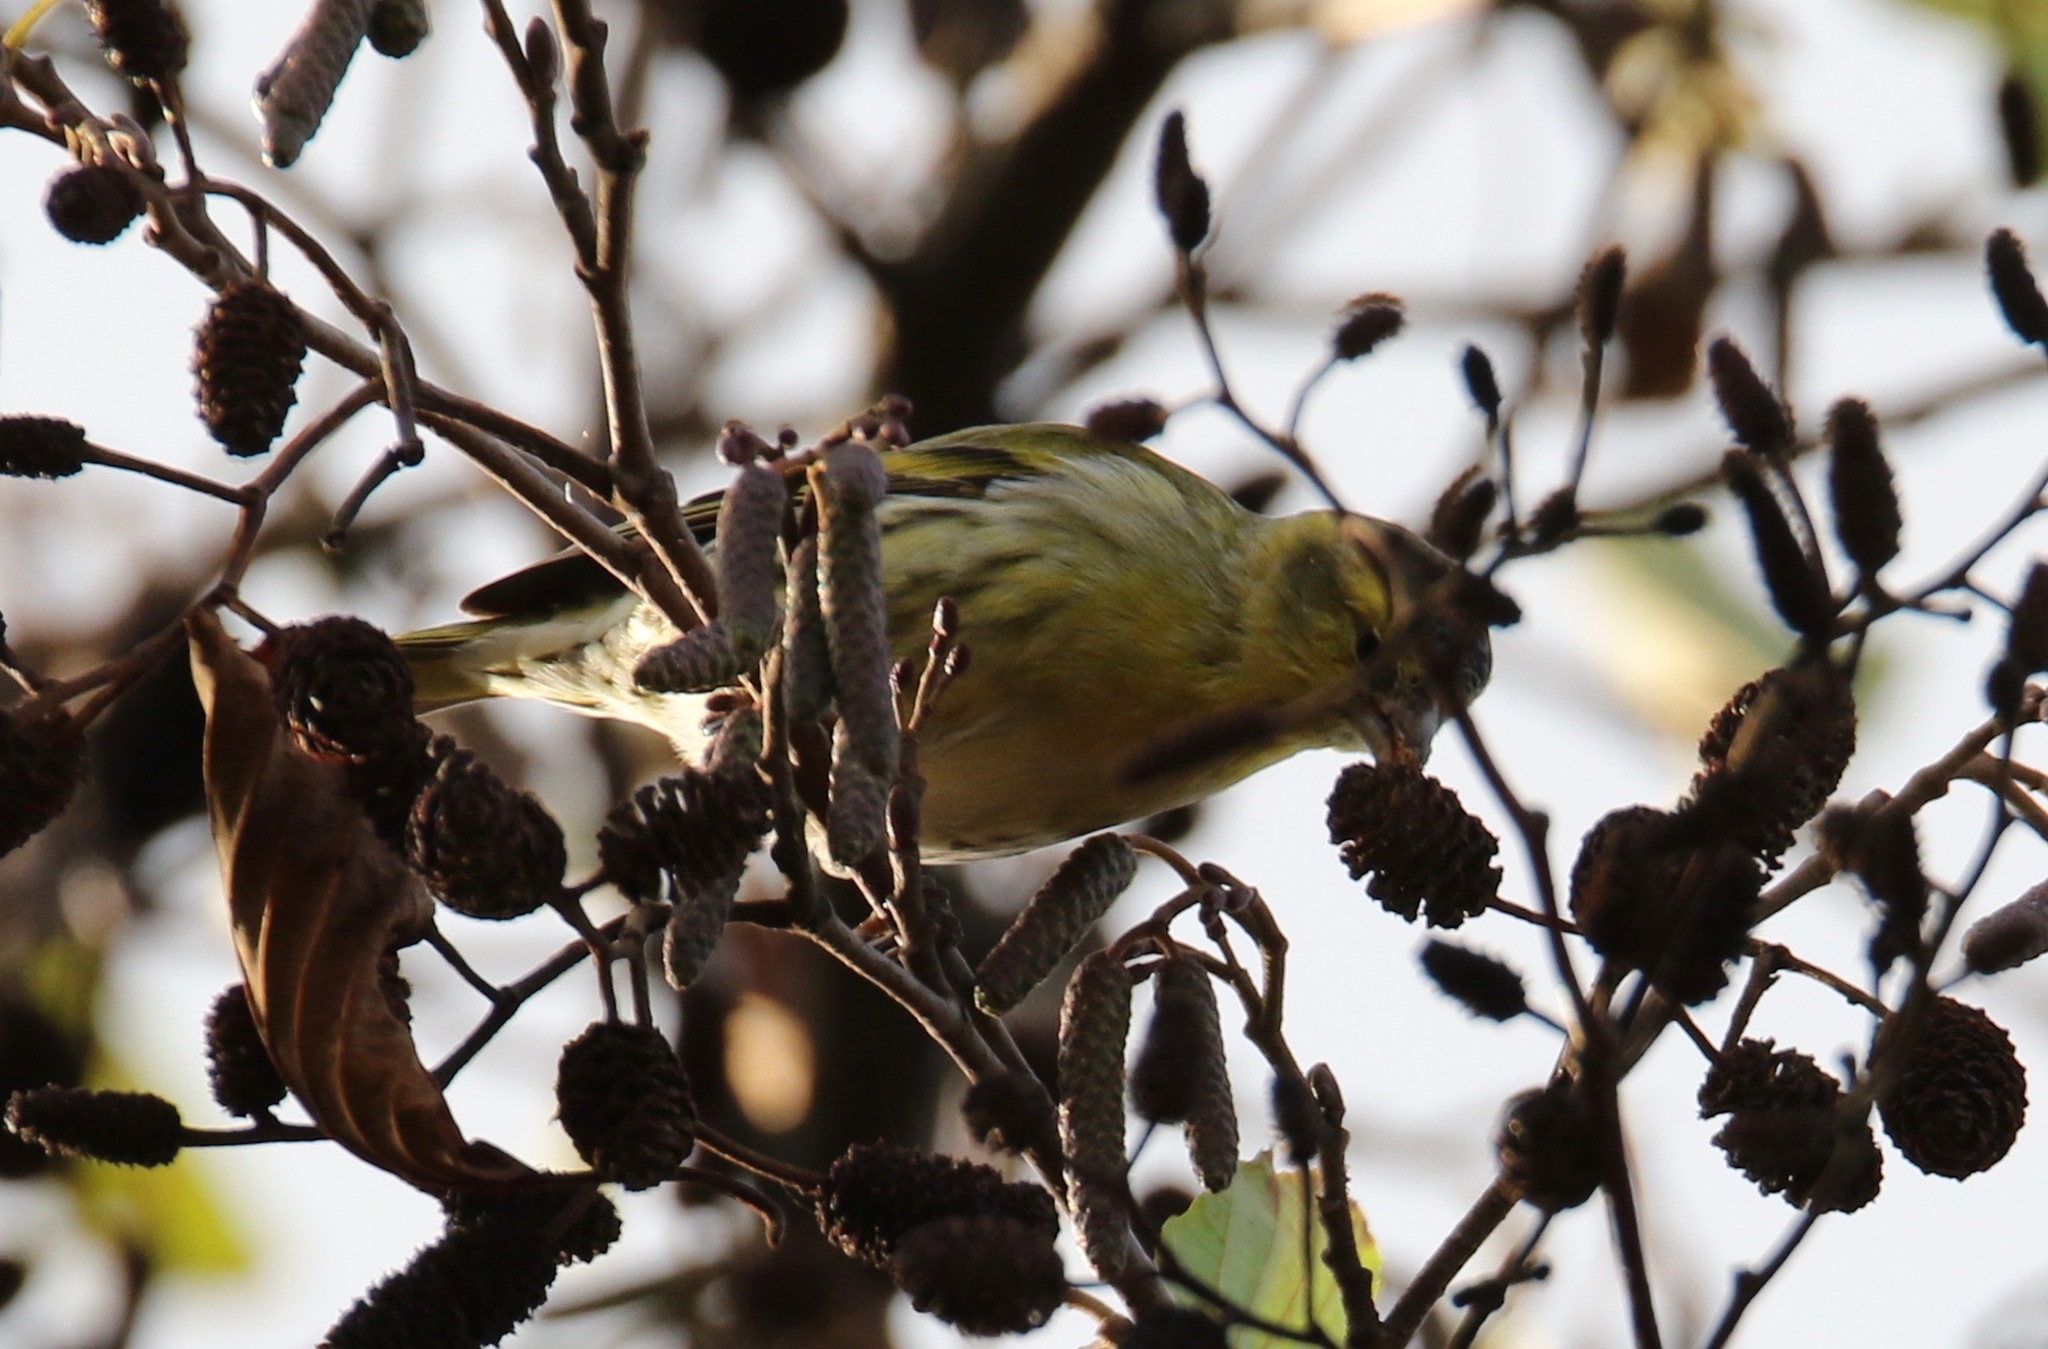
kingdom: Animalia
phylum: Chordata
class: Aves
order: Passeriformes
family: Fringillidae
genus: Spinus
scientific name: Spinus spinus
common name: Eurasian siskin
